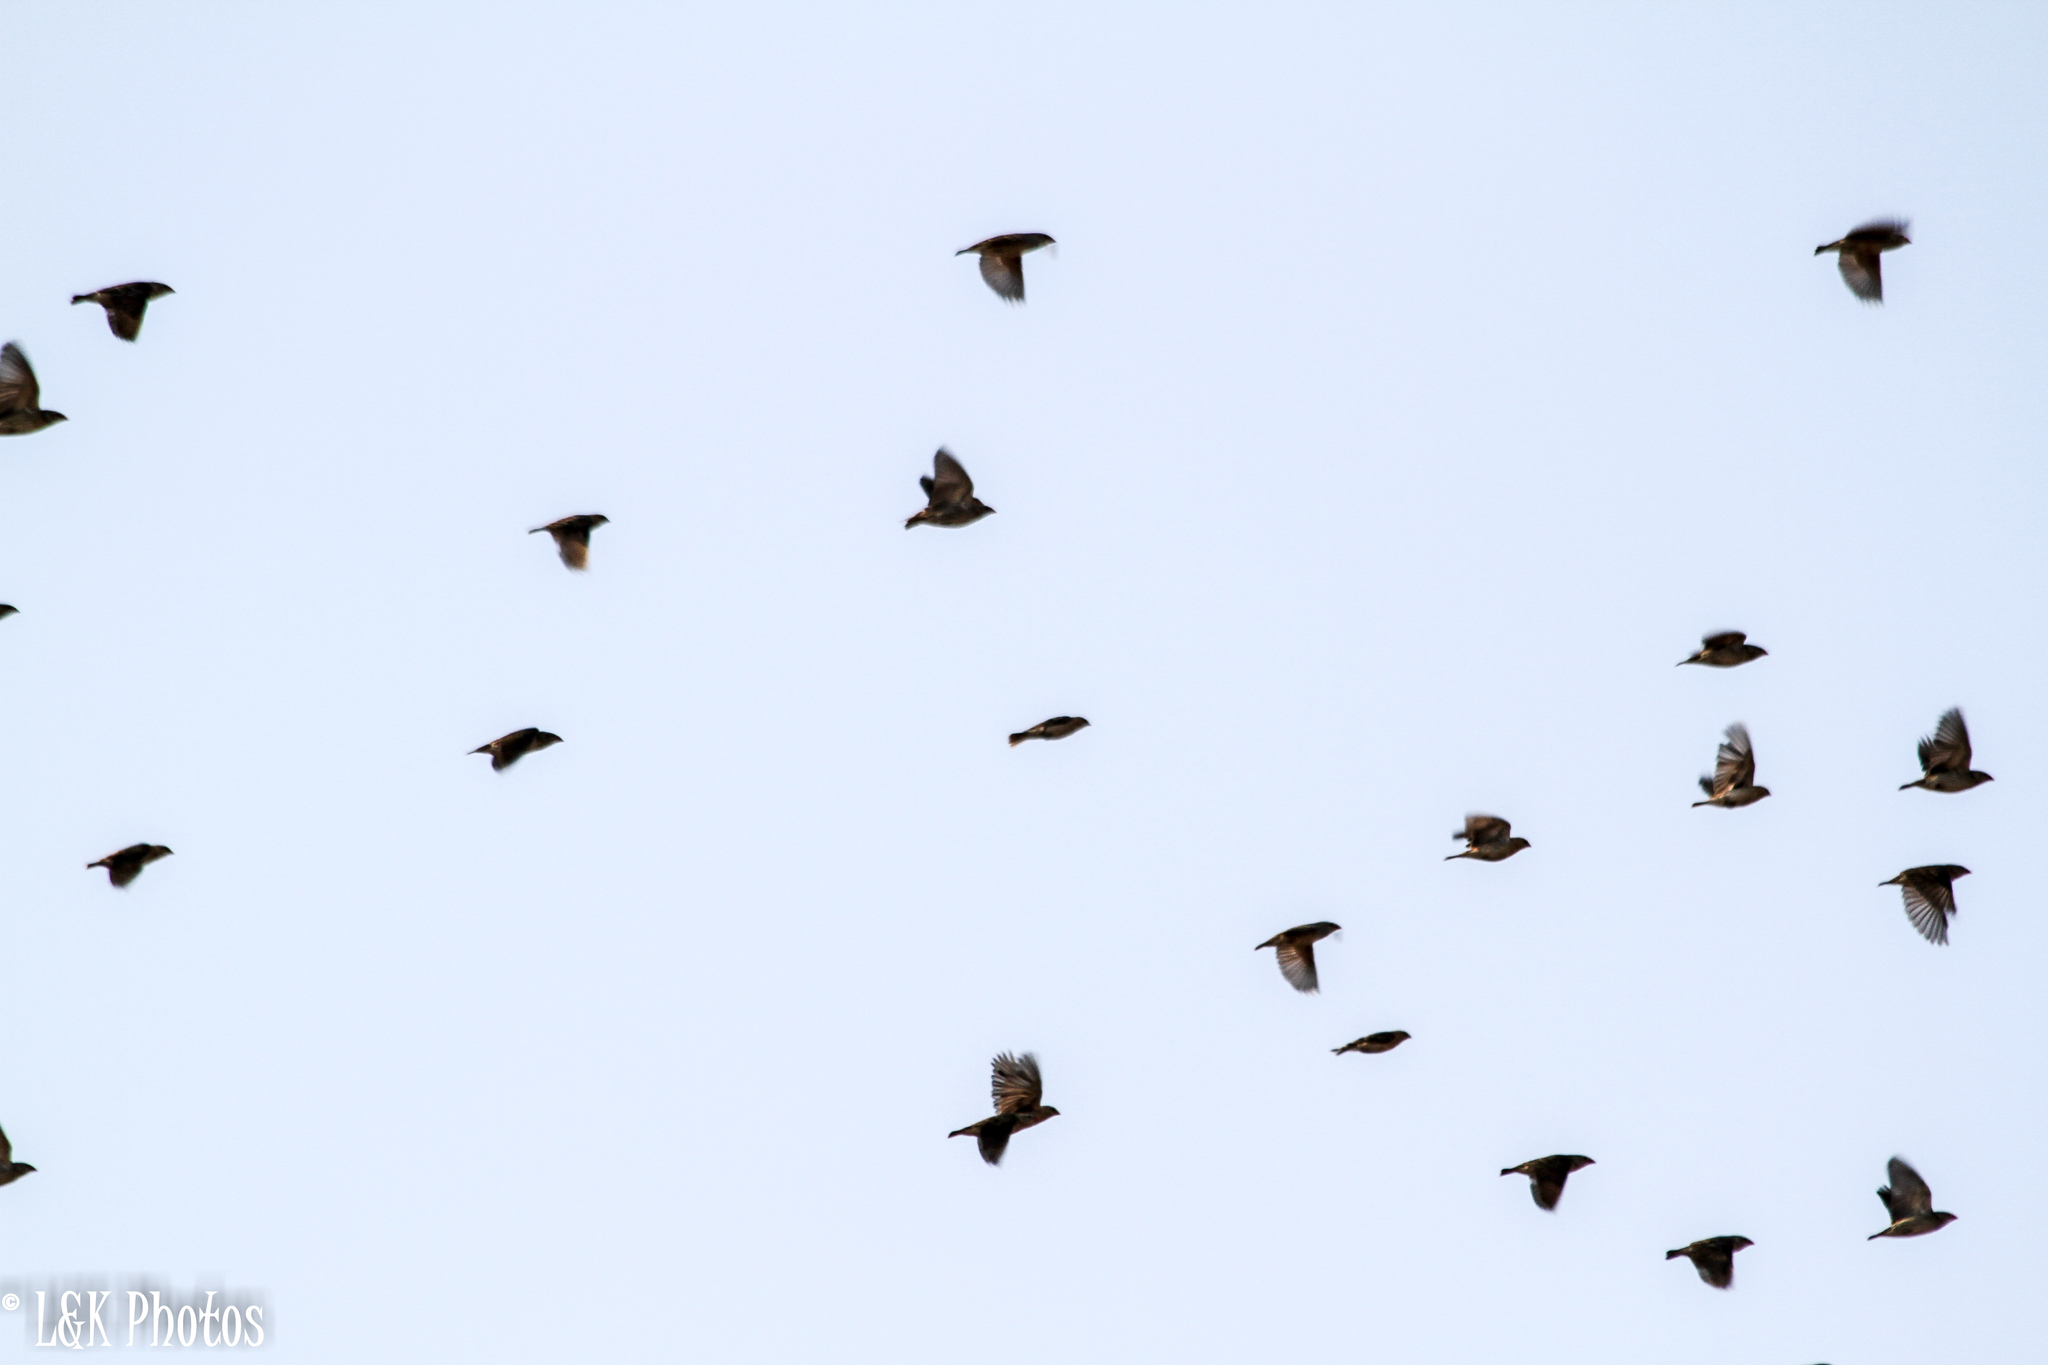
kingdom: Animalia
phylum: Chordata
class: Aves
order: Passeriformes
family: Ploceidae
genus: Quelea
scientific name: Quelea quelea
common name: Red-billed quelea
